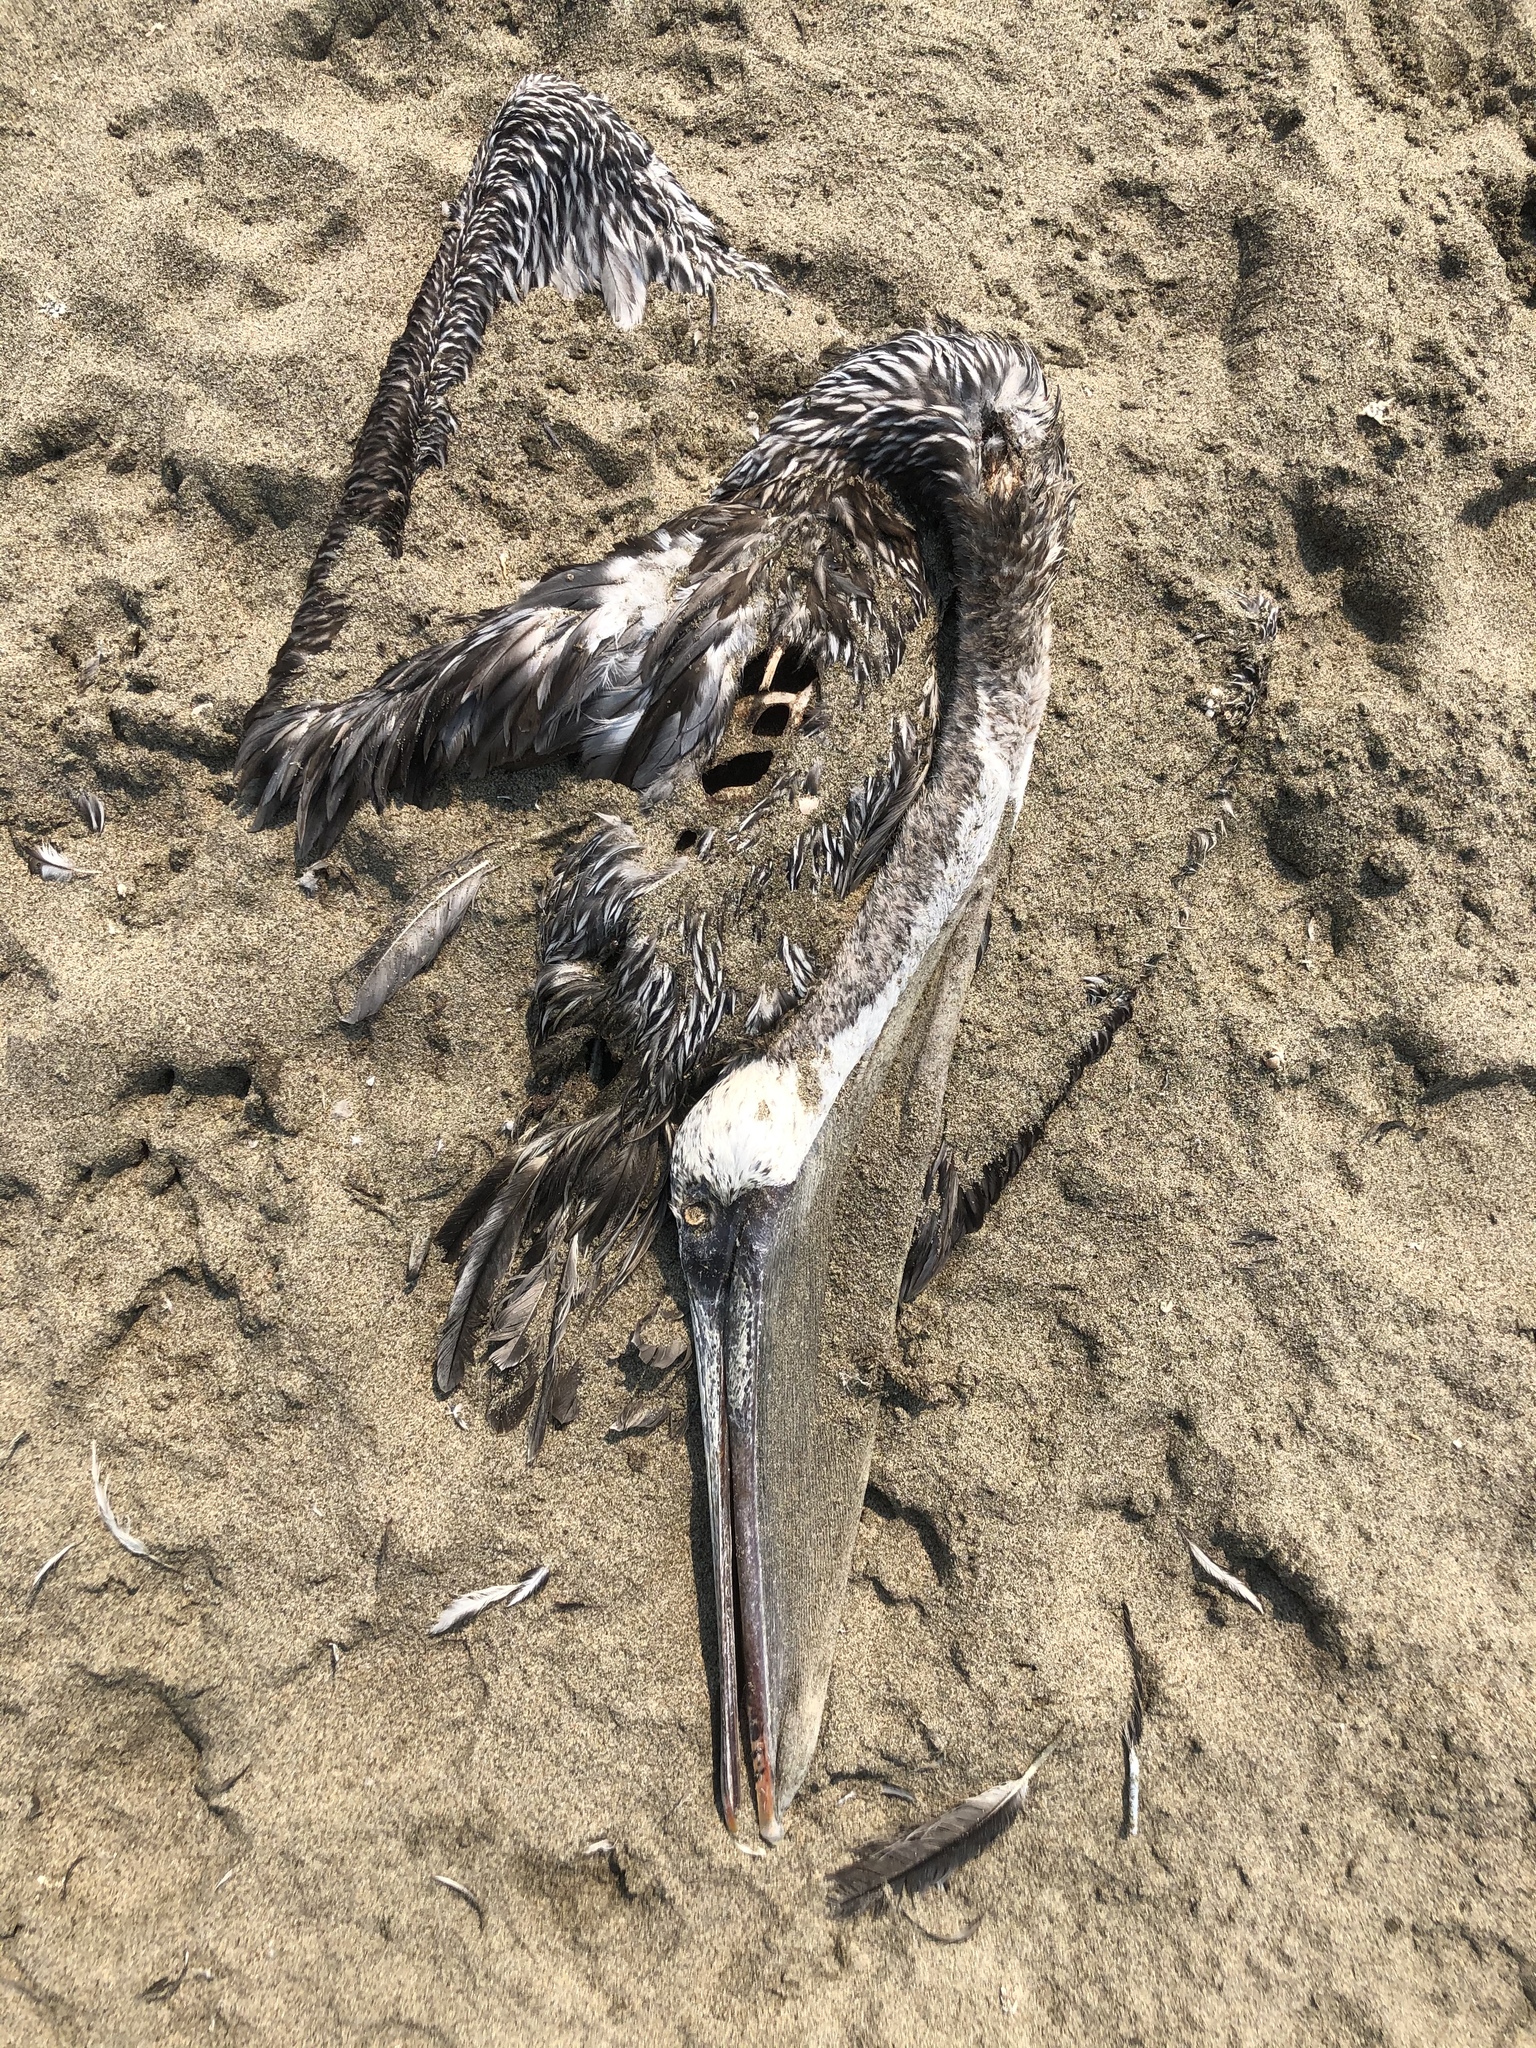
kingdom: Animalia
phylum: Chordata
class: Aves
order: Pelecaniformes
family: Pelecanidae
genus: Pelecanus
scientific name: Pelecanus occidentalis
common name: Brown pelican
